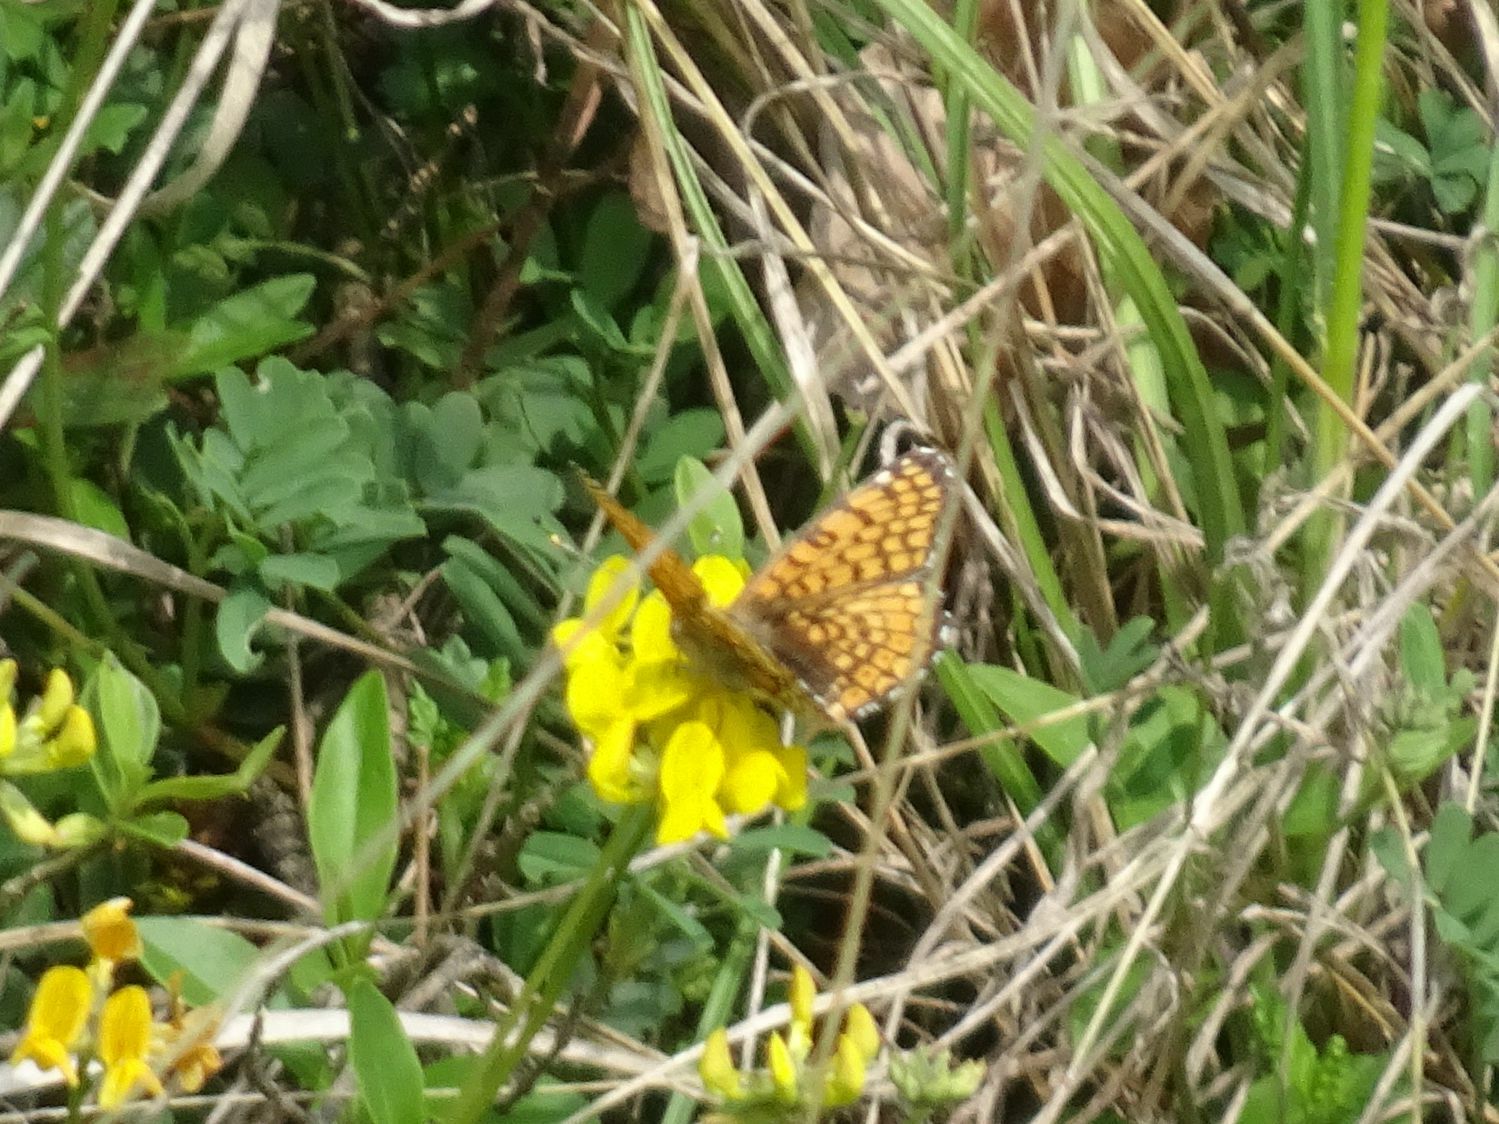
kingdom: Animalia
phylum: Arthropoda
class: Insecta
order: Lepidoptera
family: Nymphalidae
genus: Melitaea
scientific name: Melitaea cinxia
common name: Glanville fritillary
